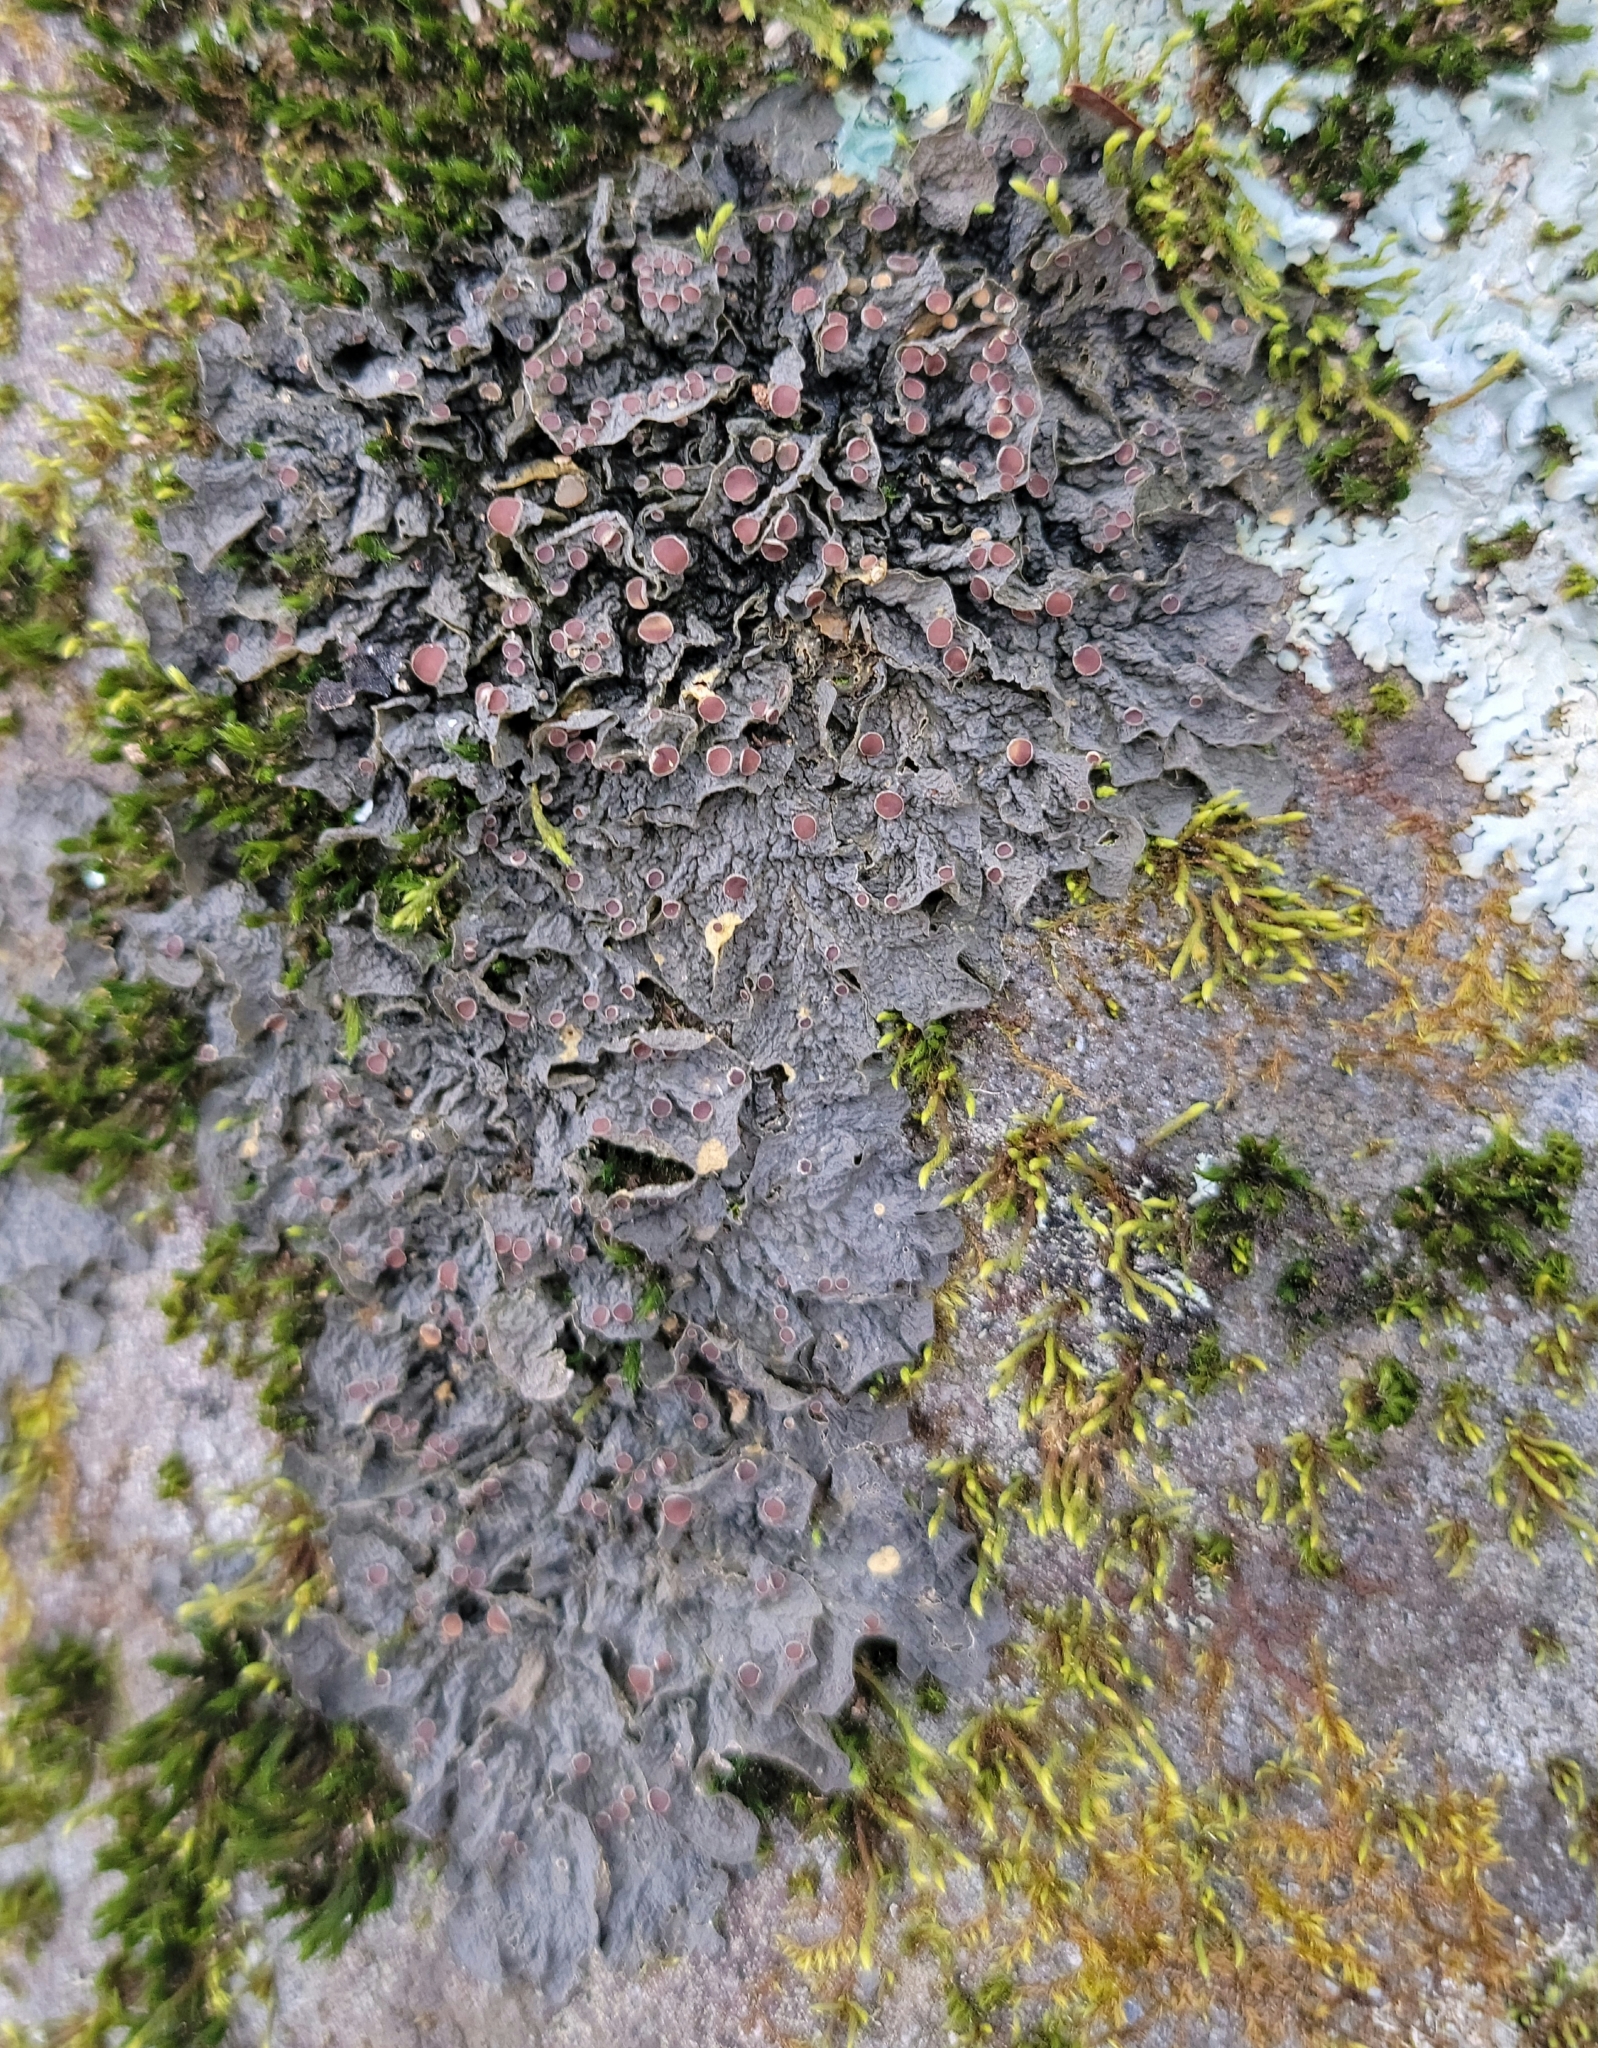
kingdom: Fungi
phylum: Ascomycota
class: Lecanoromycetes
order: Peltigerales
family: Collemataceae
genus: Leptogium
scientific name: Leptogium corticola
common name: Blistered jellyskin lichen
